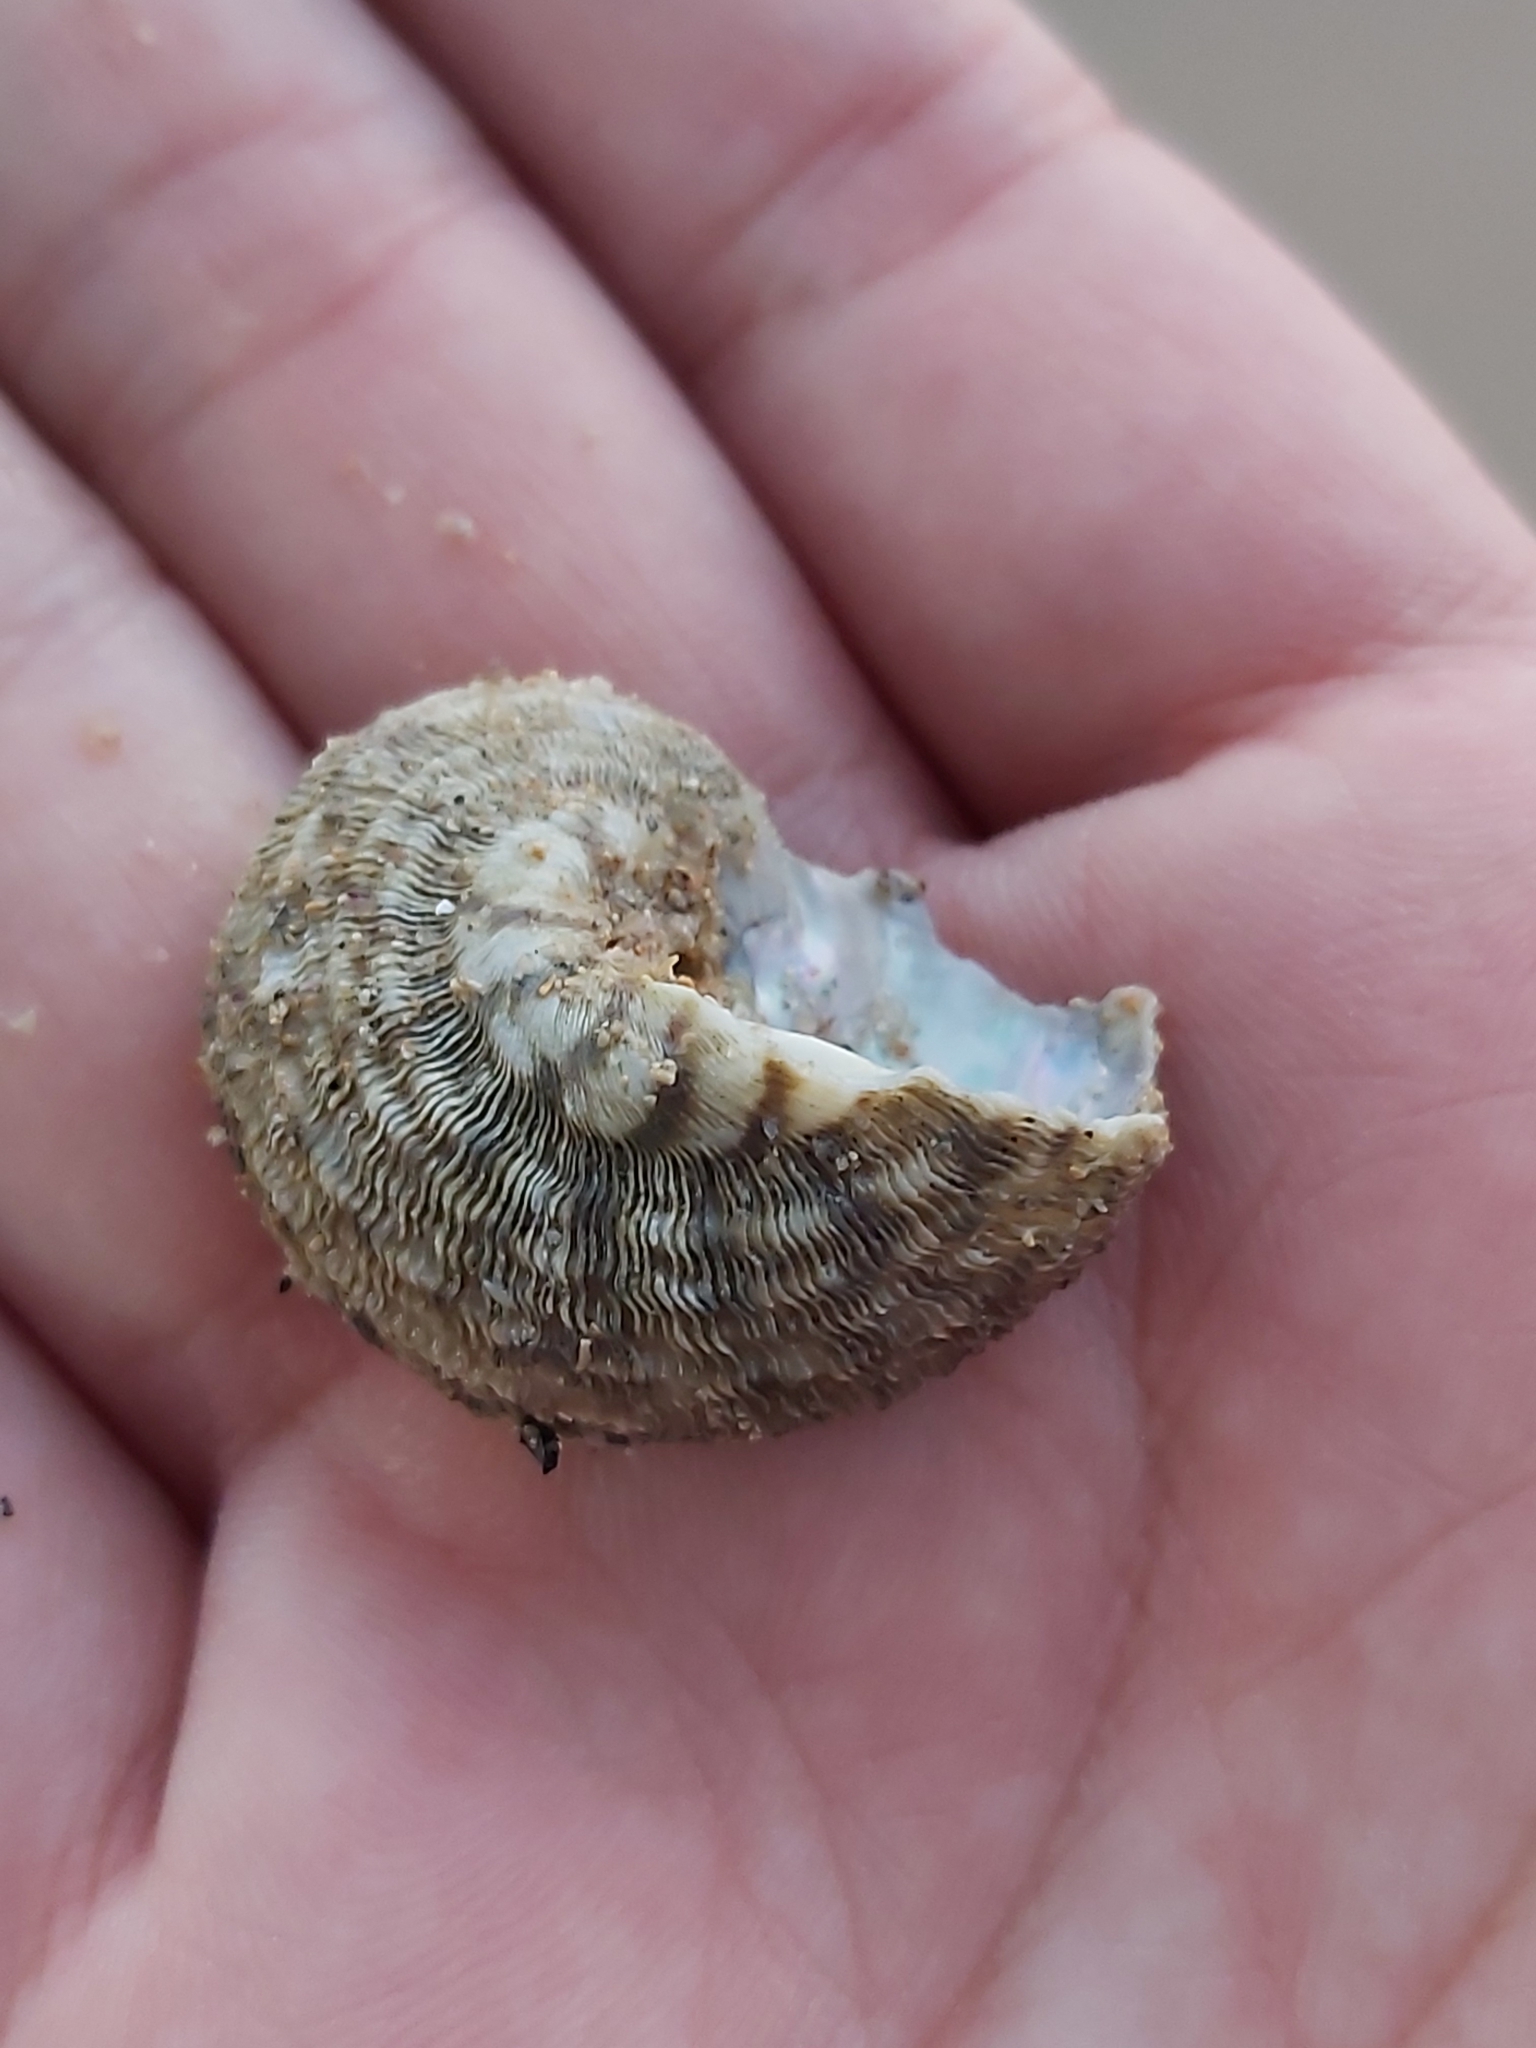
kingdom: Animalia
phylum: Mollusca
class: Gastropoda
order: Trochida
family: Turbinidae
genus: Lunella
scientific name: Lunella torquata
